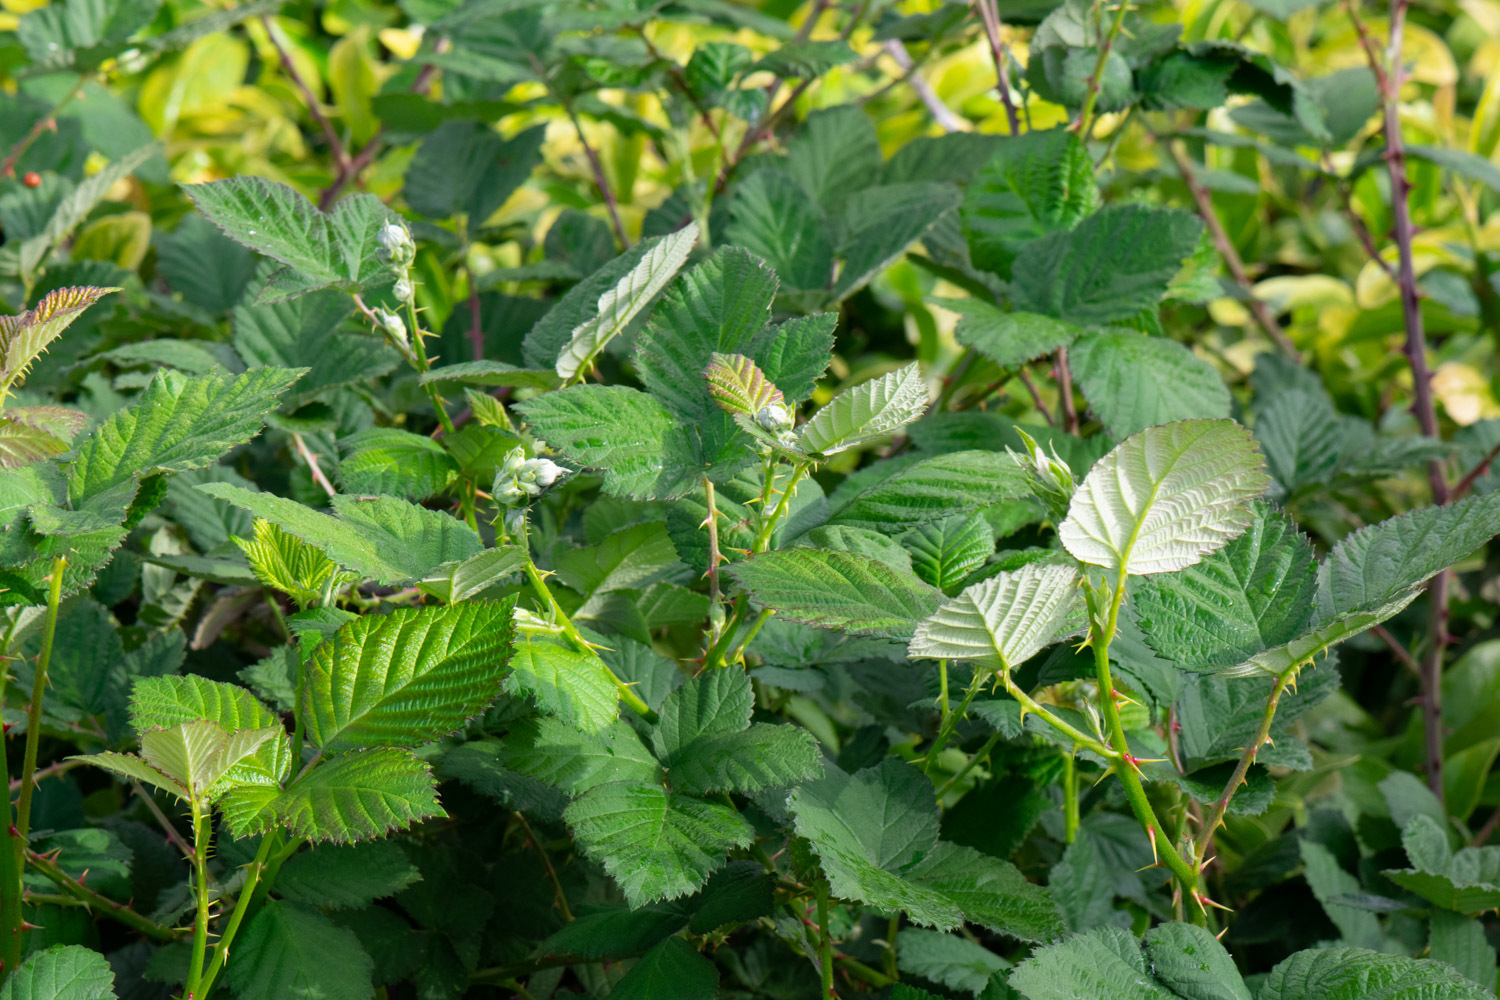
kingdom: Plantae
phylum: Tracheophyta
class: Magnoliopsida
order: Rosales
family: Rosaceae
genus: Rubus
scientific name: Rubus armeniacus
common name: Himalayan blackberry
